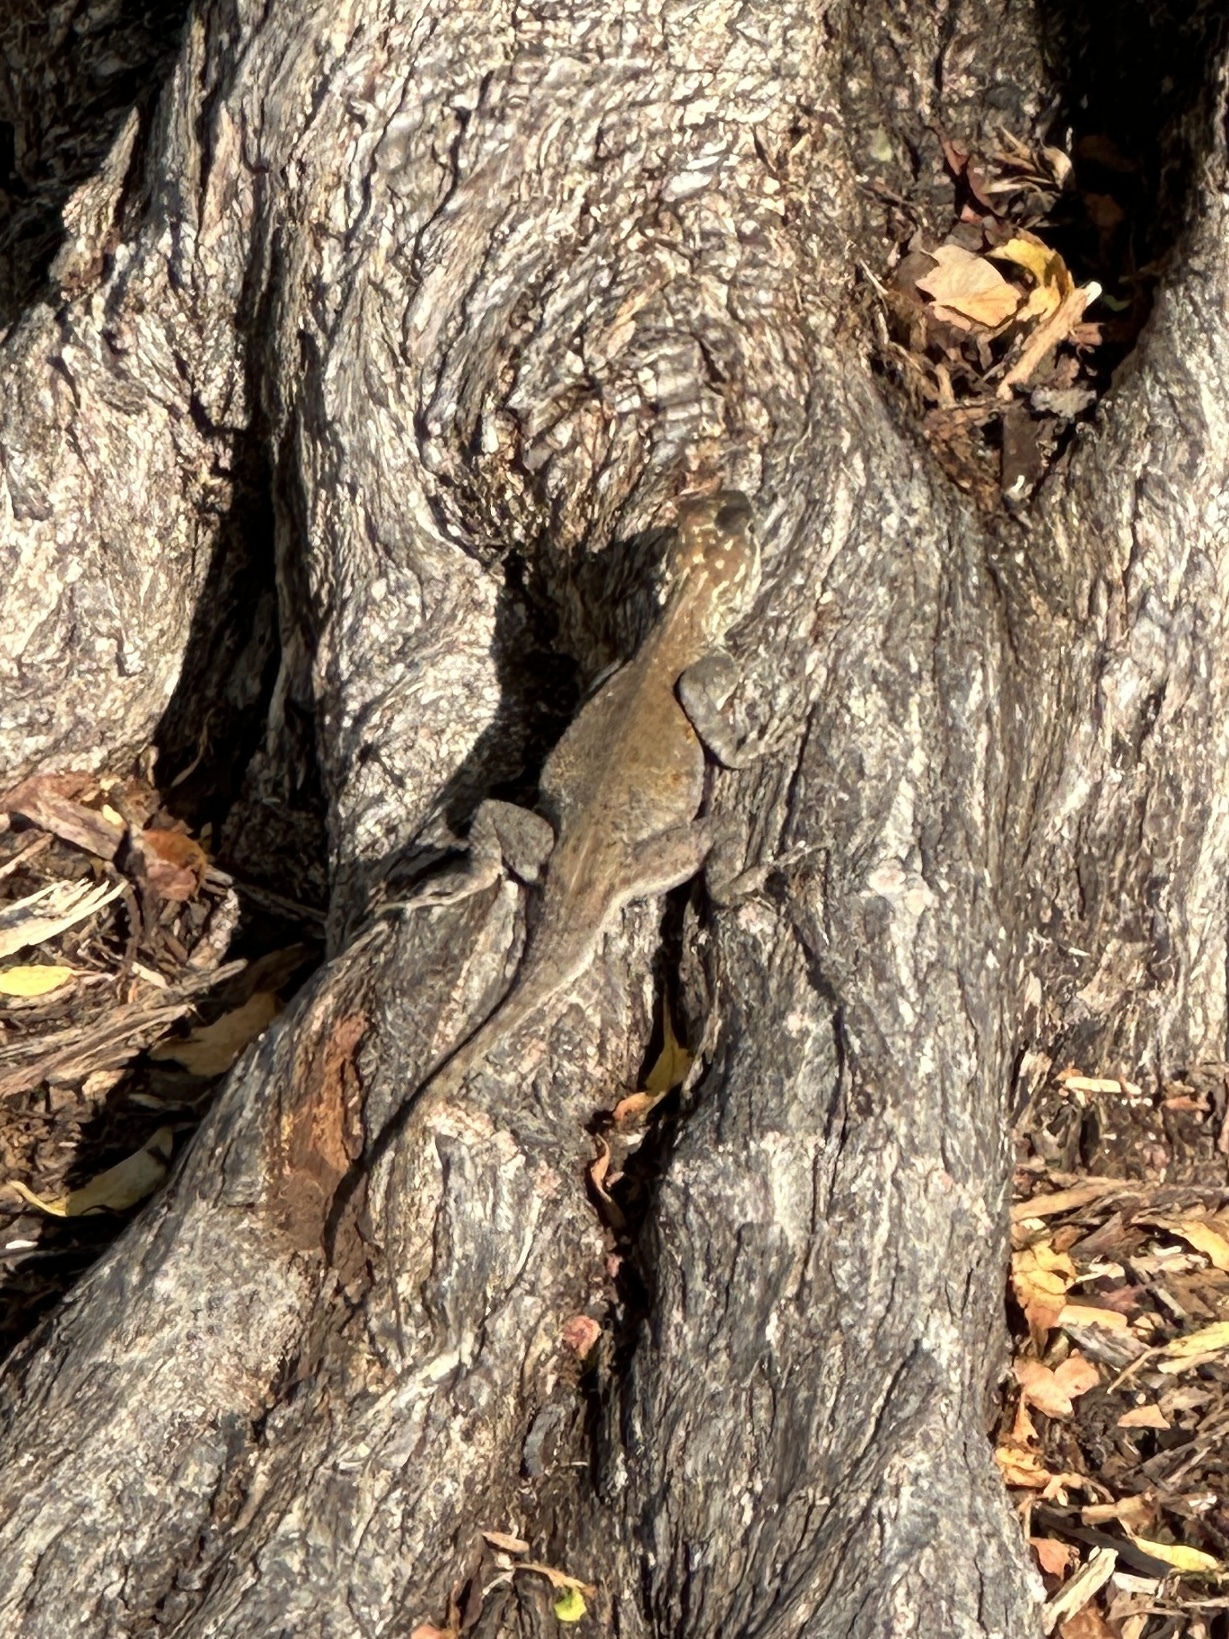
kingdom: Animalia
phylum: Chordata
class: Squamata
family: Agamidae
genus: Agama
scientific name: Agama picticauda
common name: Red-headed agama
